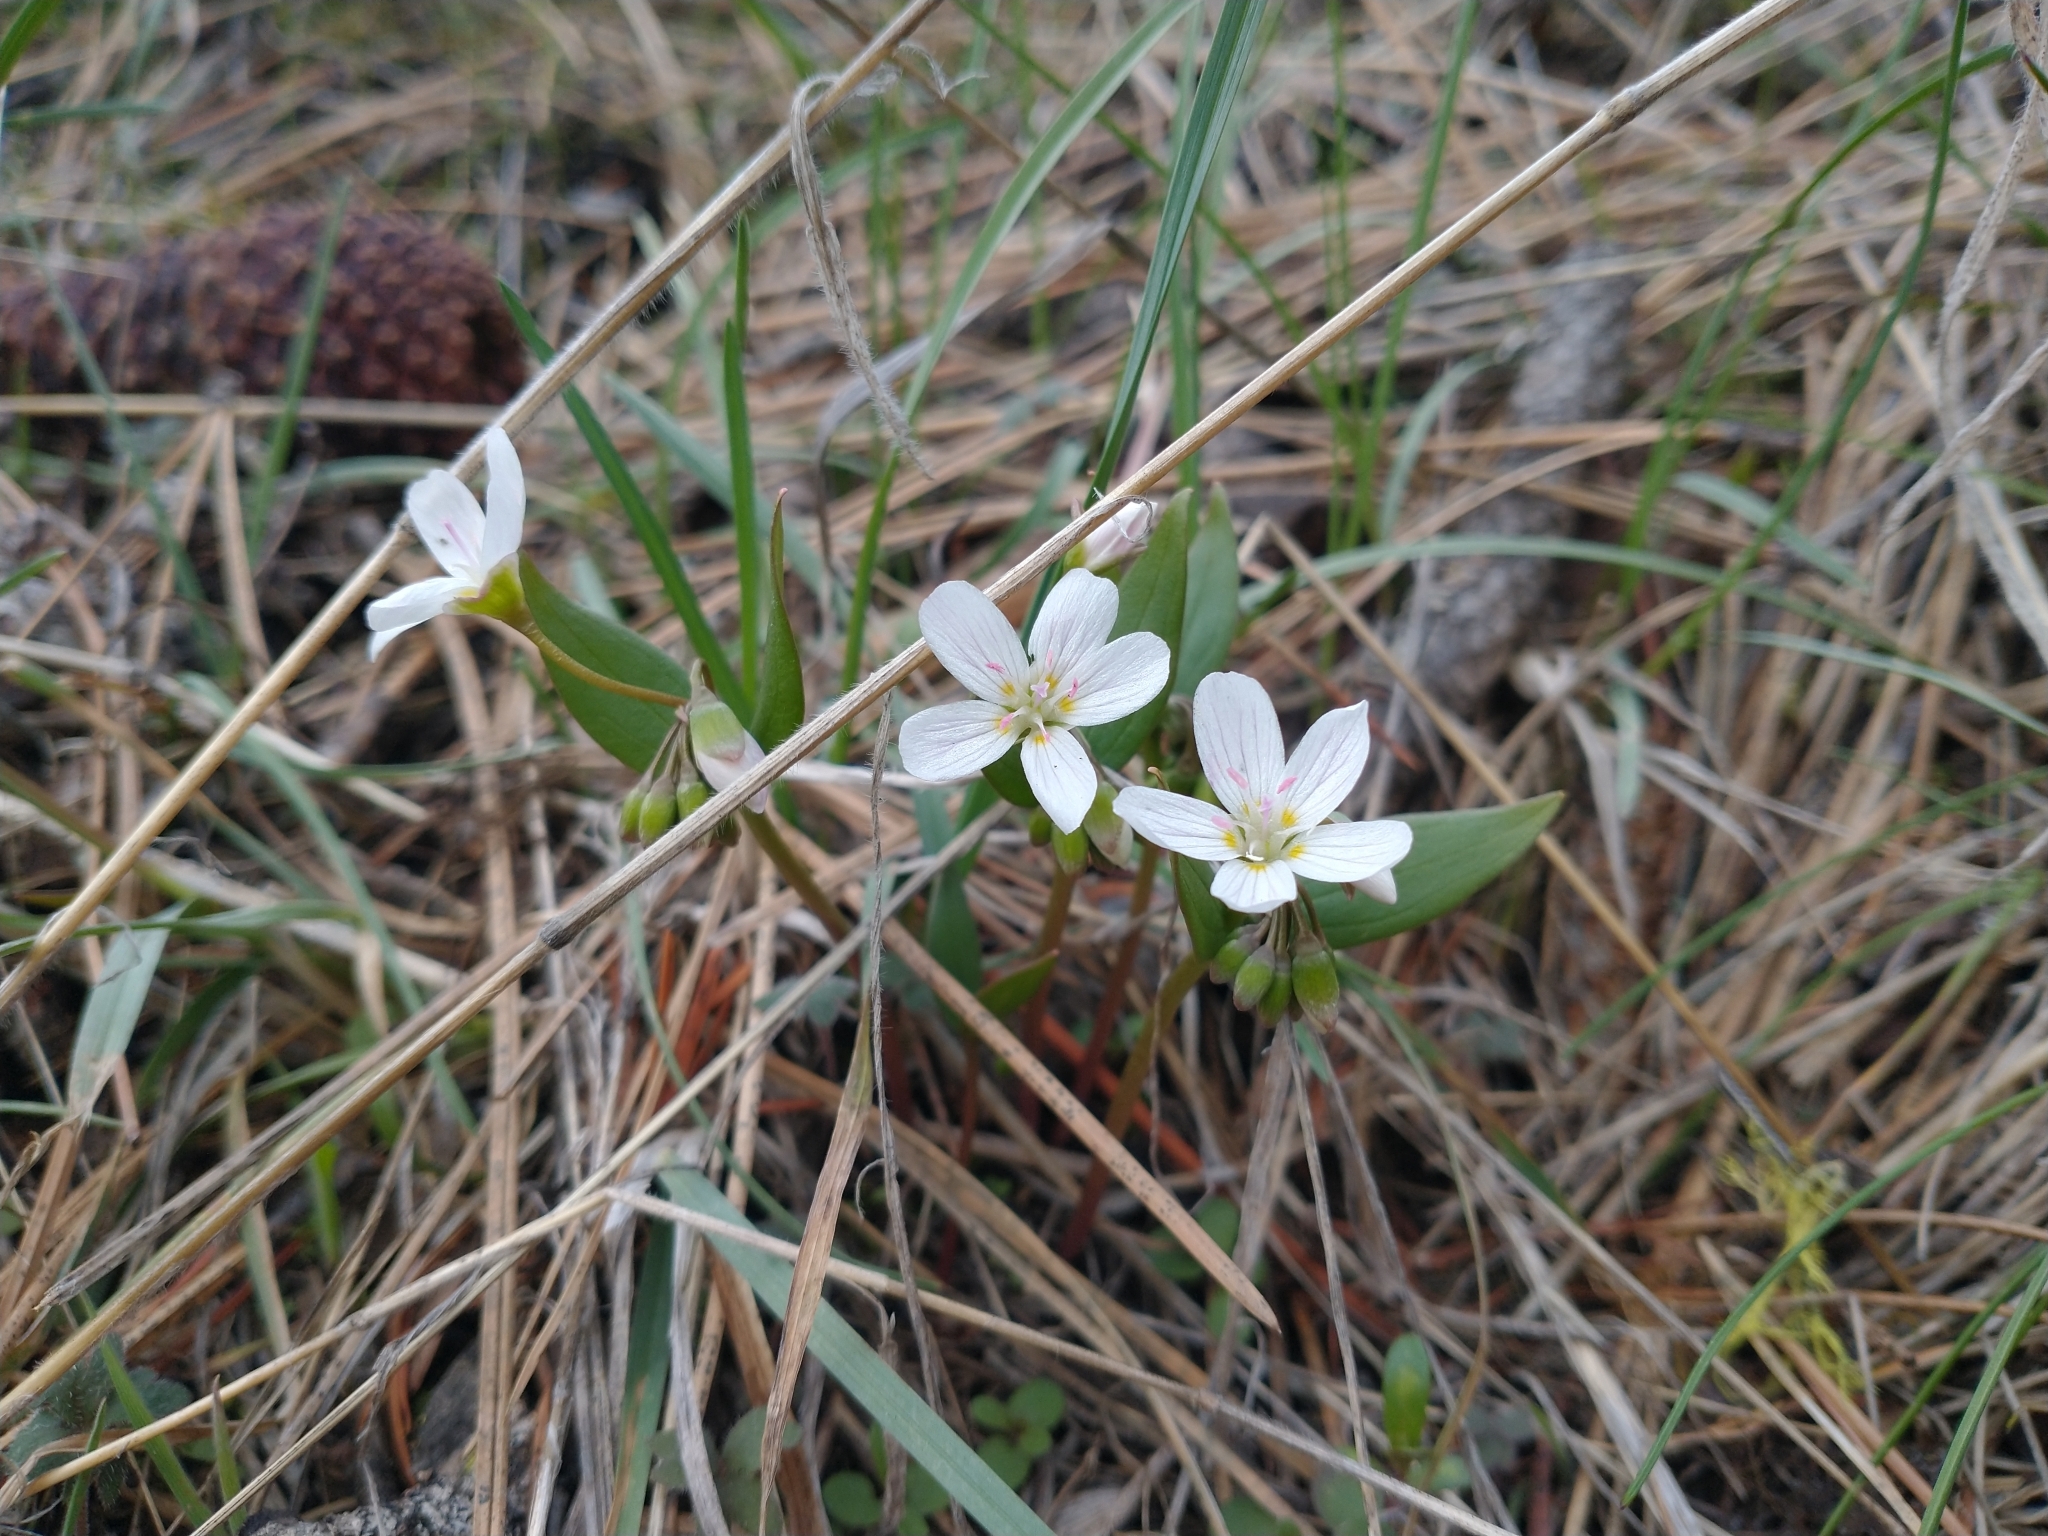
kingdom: Plantae
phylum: Tracheophyta
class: Magnoliopsida
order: Caryophyllales
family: Montiaceae
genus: Claytonia
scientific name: Claytonia lanceolata
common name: Western spring-beauty
